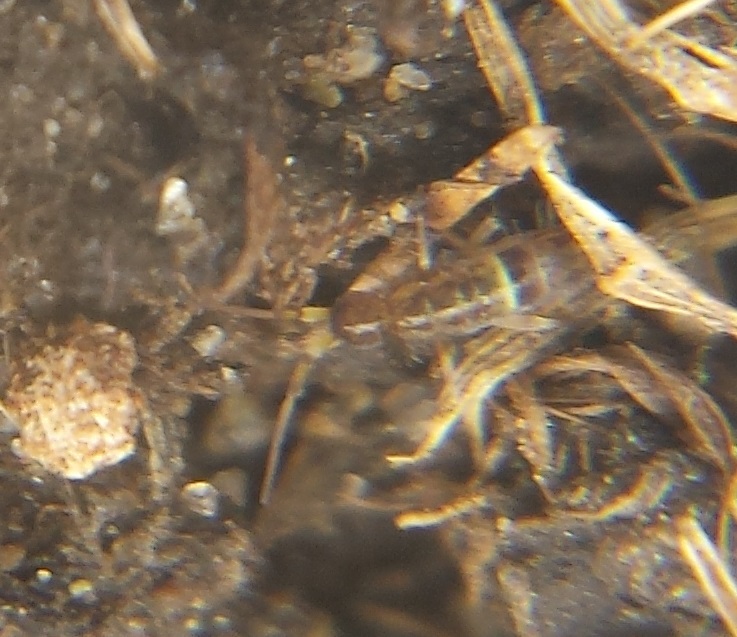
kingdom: Animalia
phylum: Arthropoda
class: Collembola
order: Entomobryomorpha
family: Orchesellidae
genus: Orchesella
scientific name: Orchesella cincta
